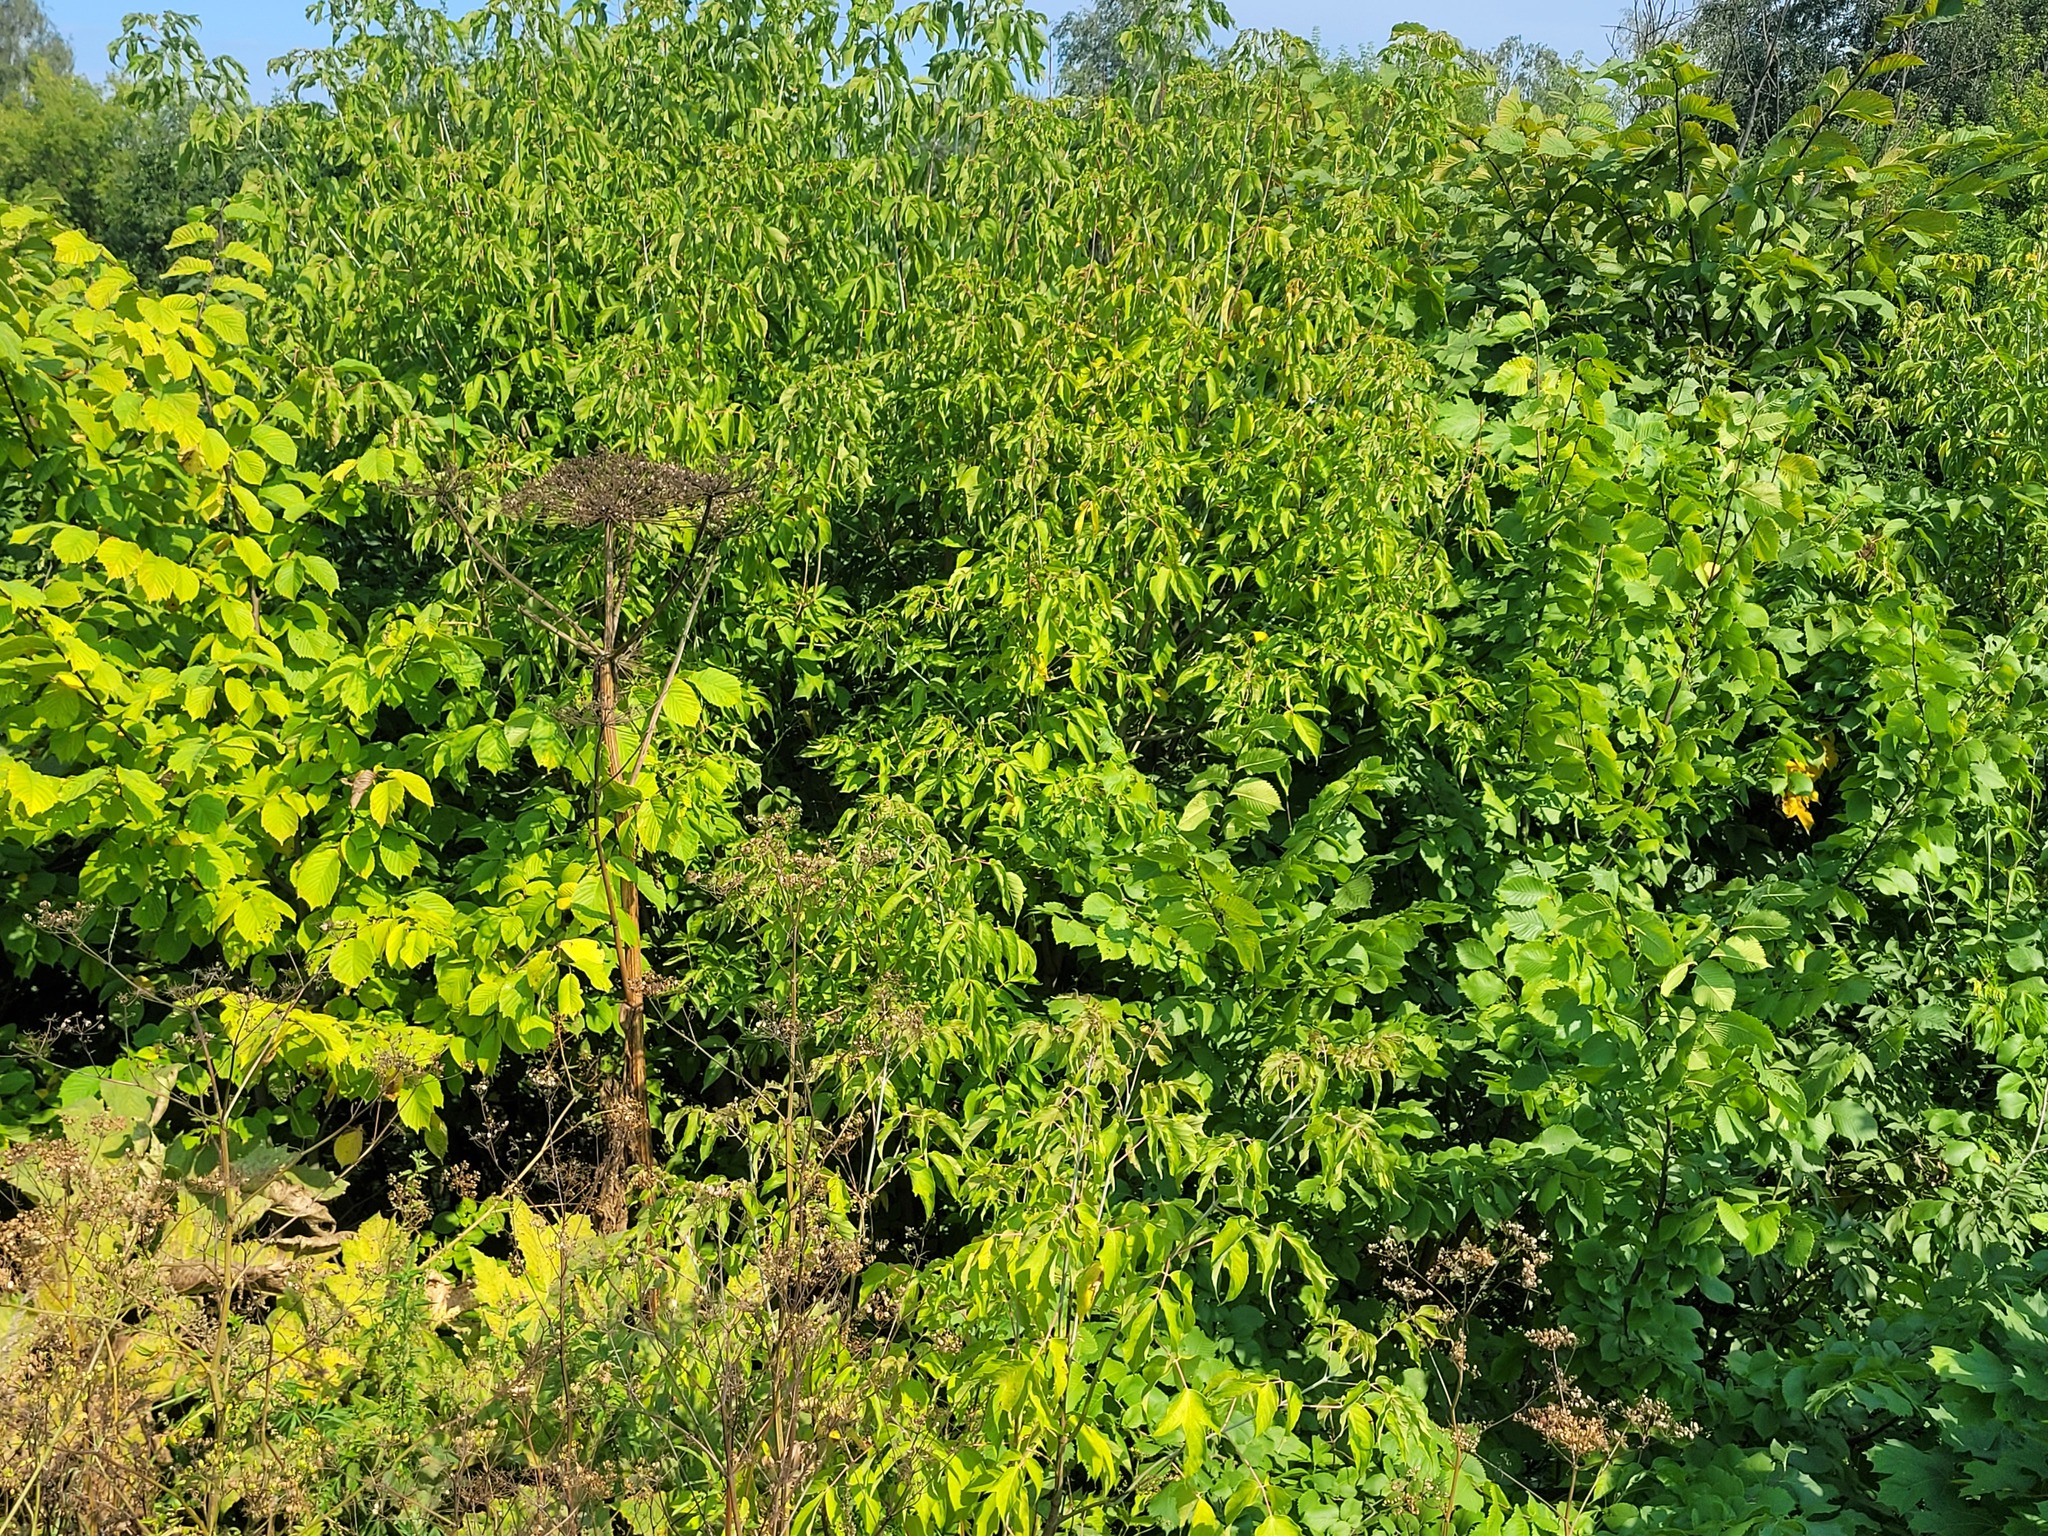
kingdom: Plantae
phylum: Tracheophyta
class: Magnoliopsida
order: Sapindales
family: Sapindaceae
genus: Acer
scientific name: Acer negundo
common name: Ashleaf maple
